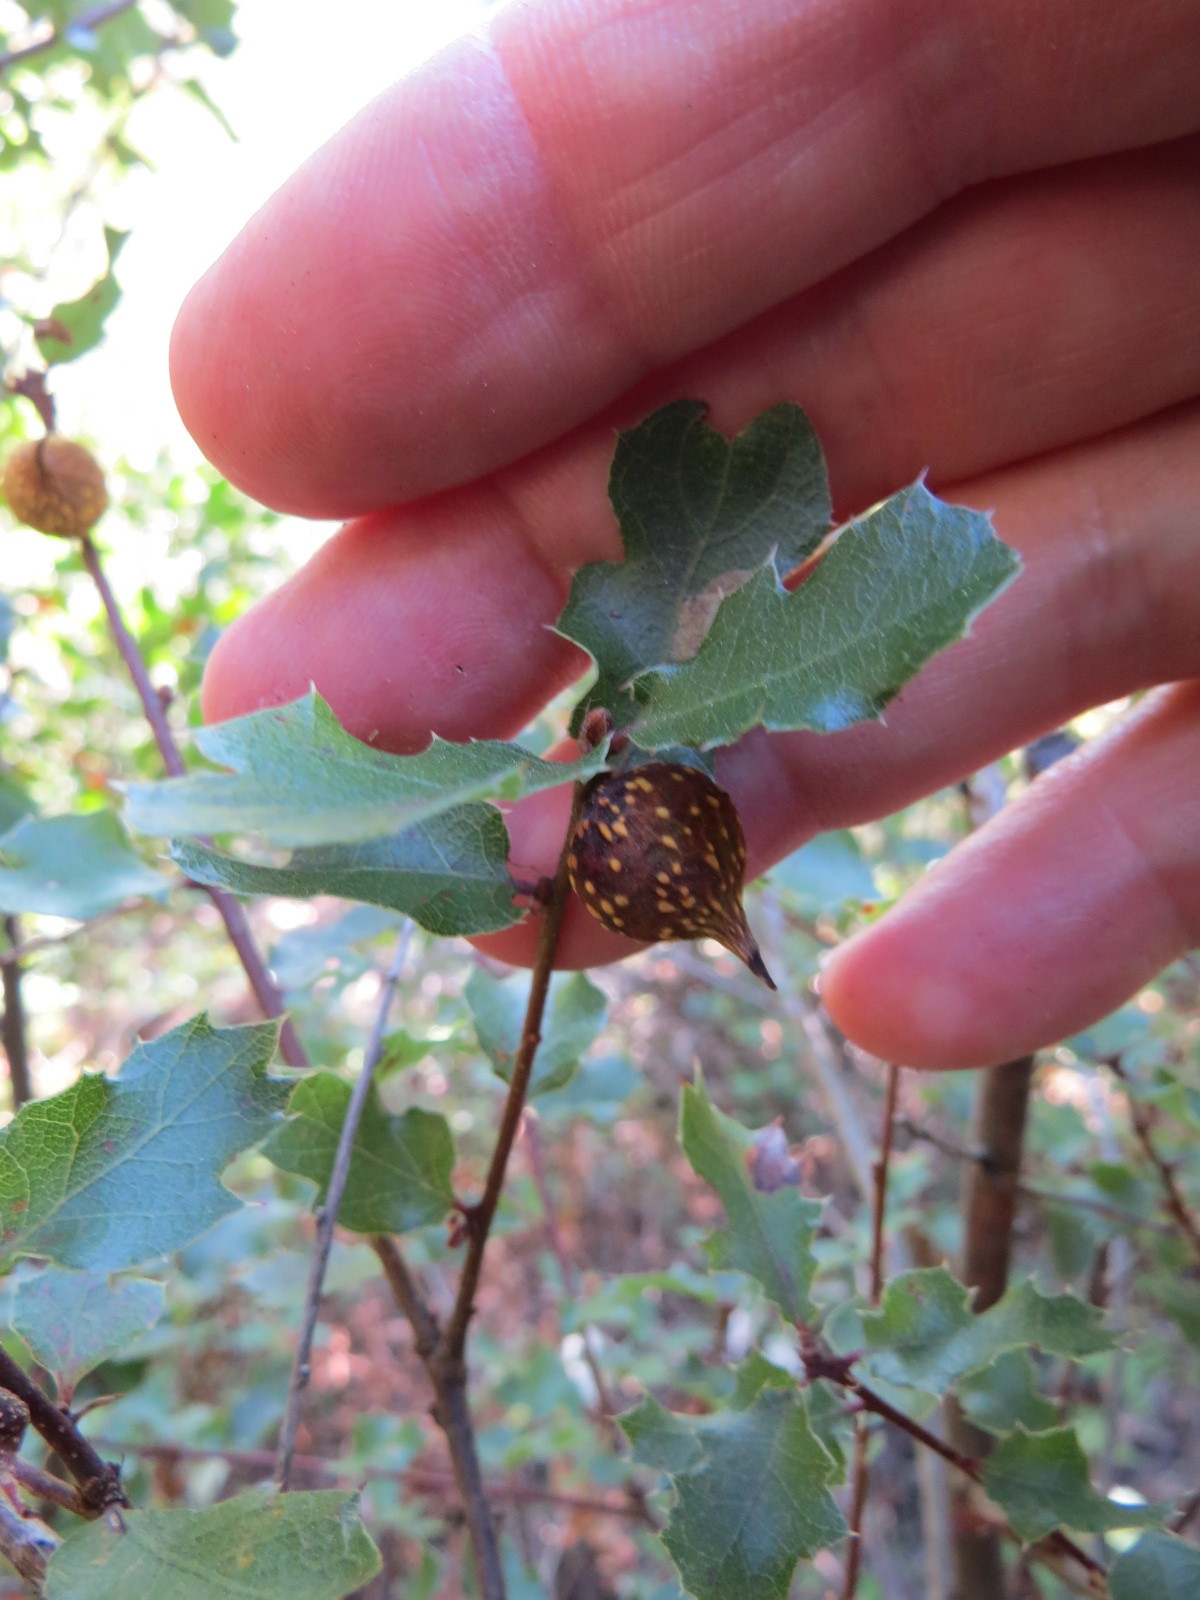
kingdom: Animalia
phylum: Arthropoda
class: Insecta
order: Hymenoptera
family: Cynipidae
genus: Burnettweldia
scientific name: Burnettweldia
